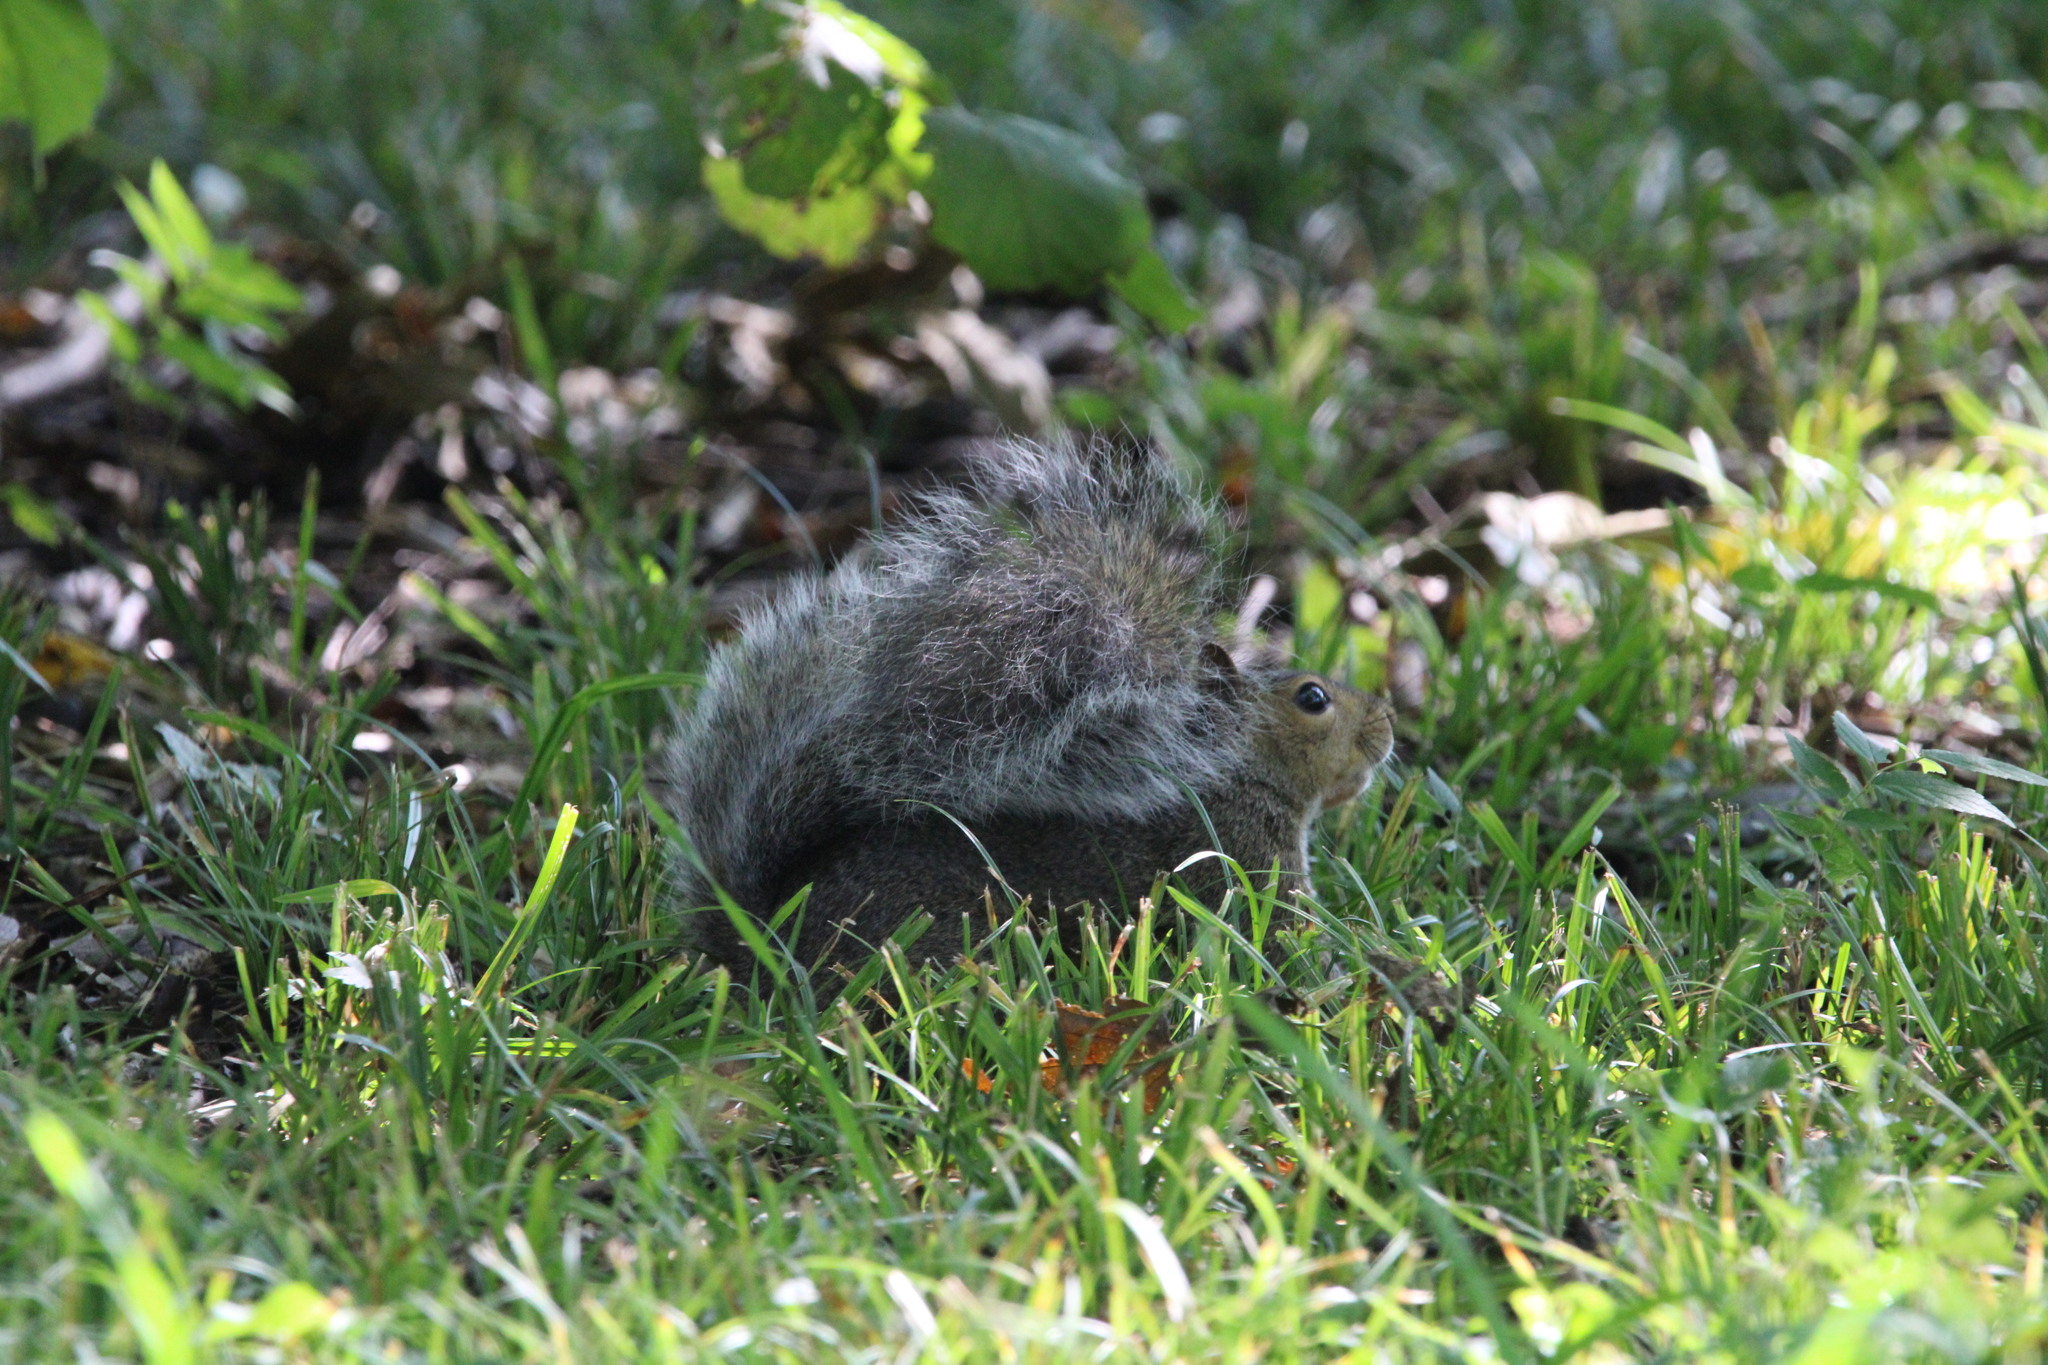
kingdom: Animalia
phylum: Chordata
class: Mammalia
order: Rodentia
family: Sciuridae
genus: Sciurus
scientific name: Sciurus carolinensis
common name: Eastern gray squirrel
